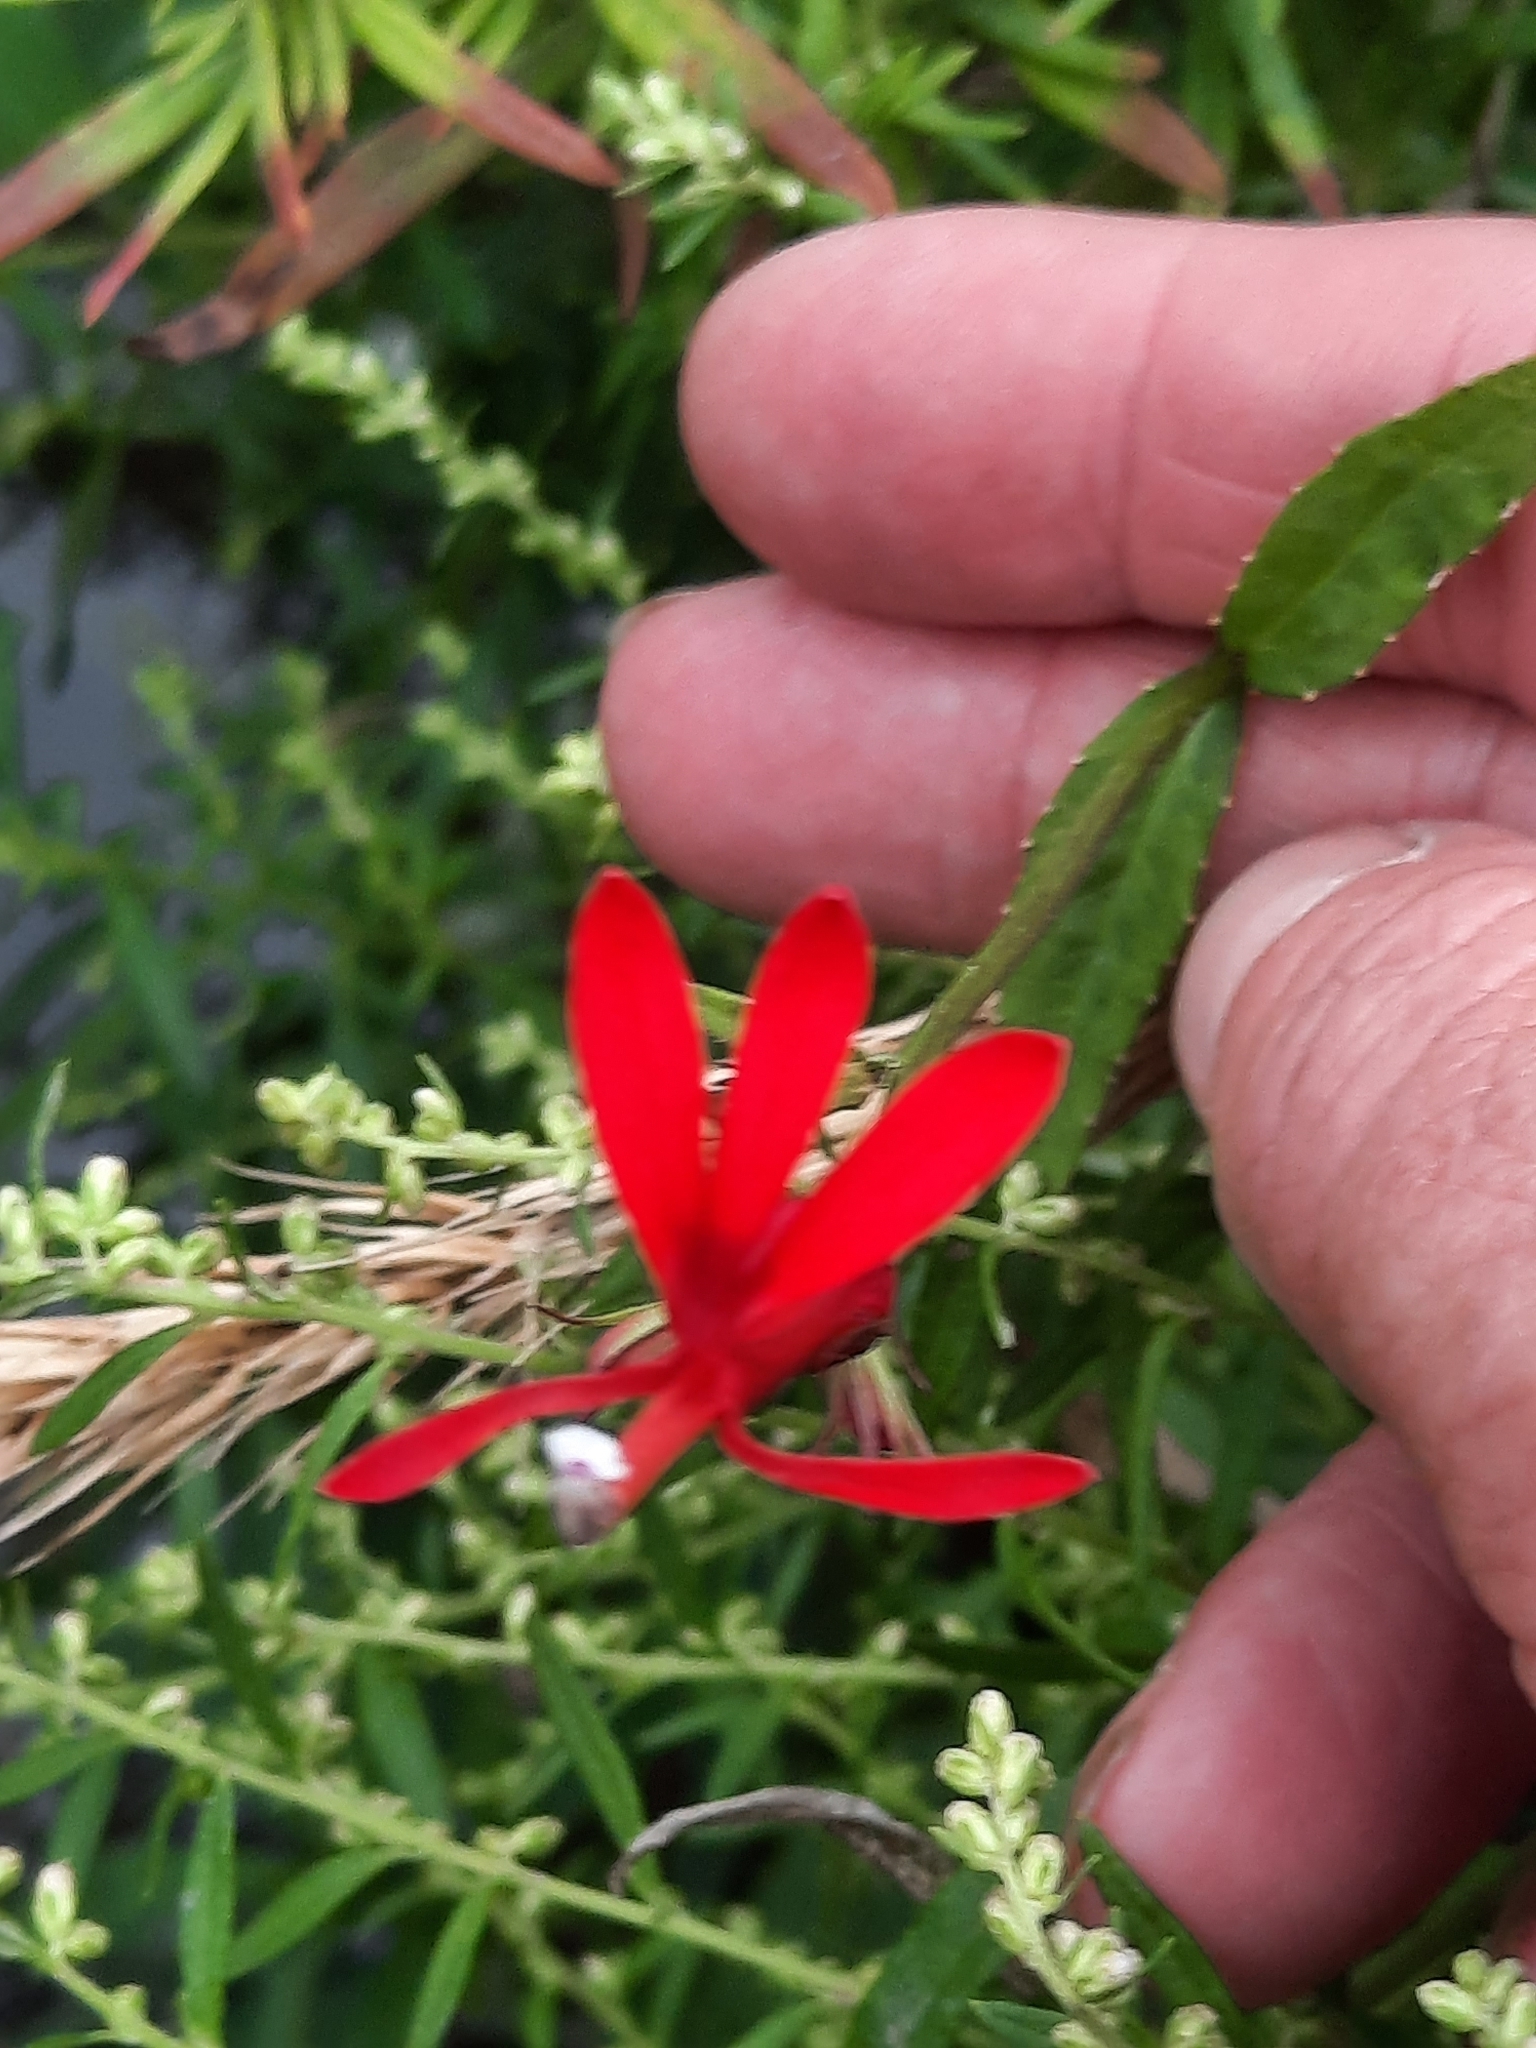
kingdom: Plantae
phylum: Tracheophyta
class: Magnoliopsida
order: Asterales
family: Campanulaceae
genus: Lobelia
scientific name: Lobelia cardinalis
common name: Cardinal flower
